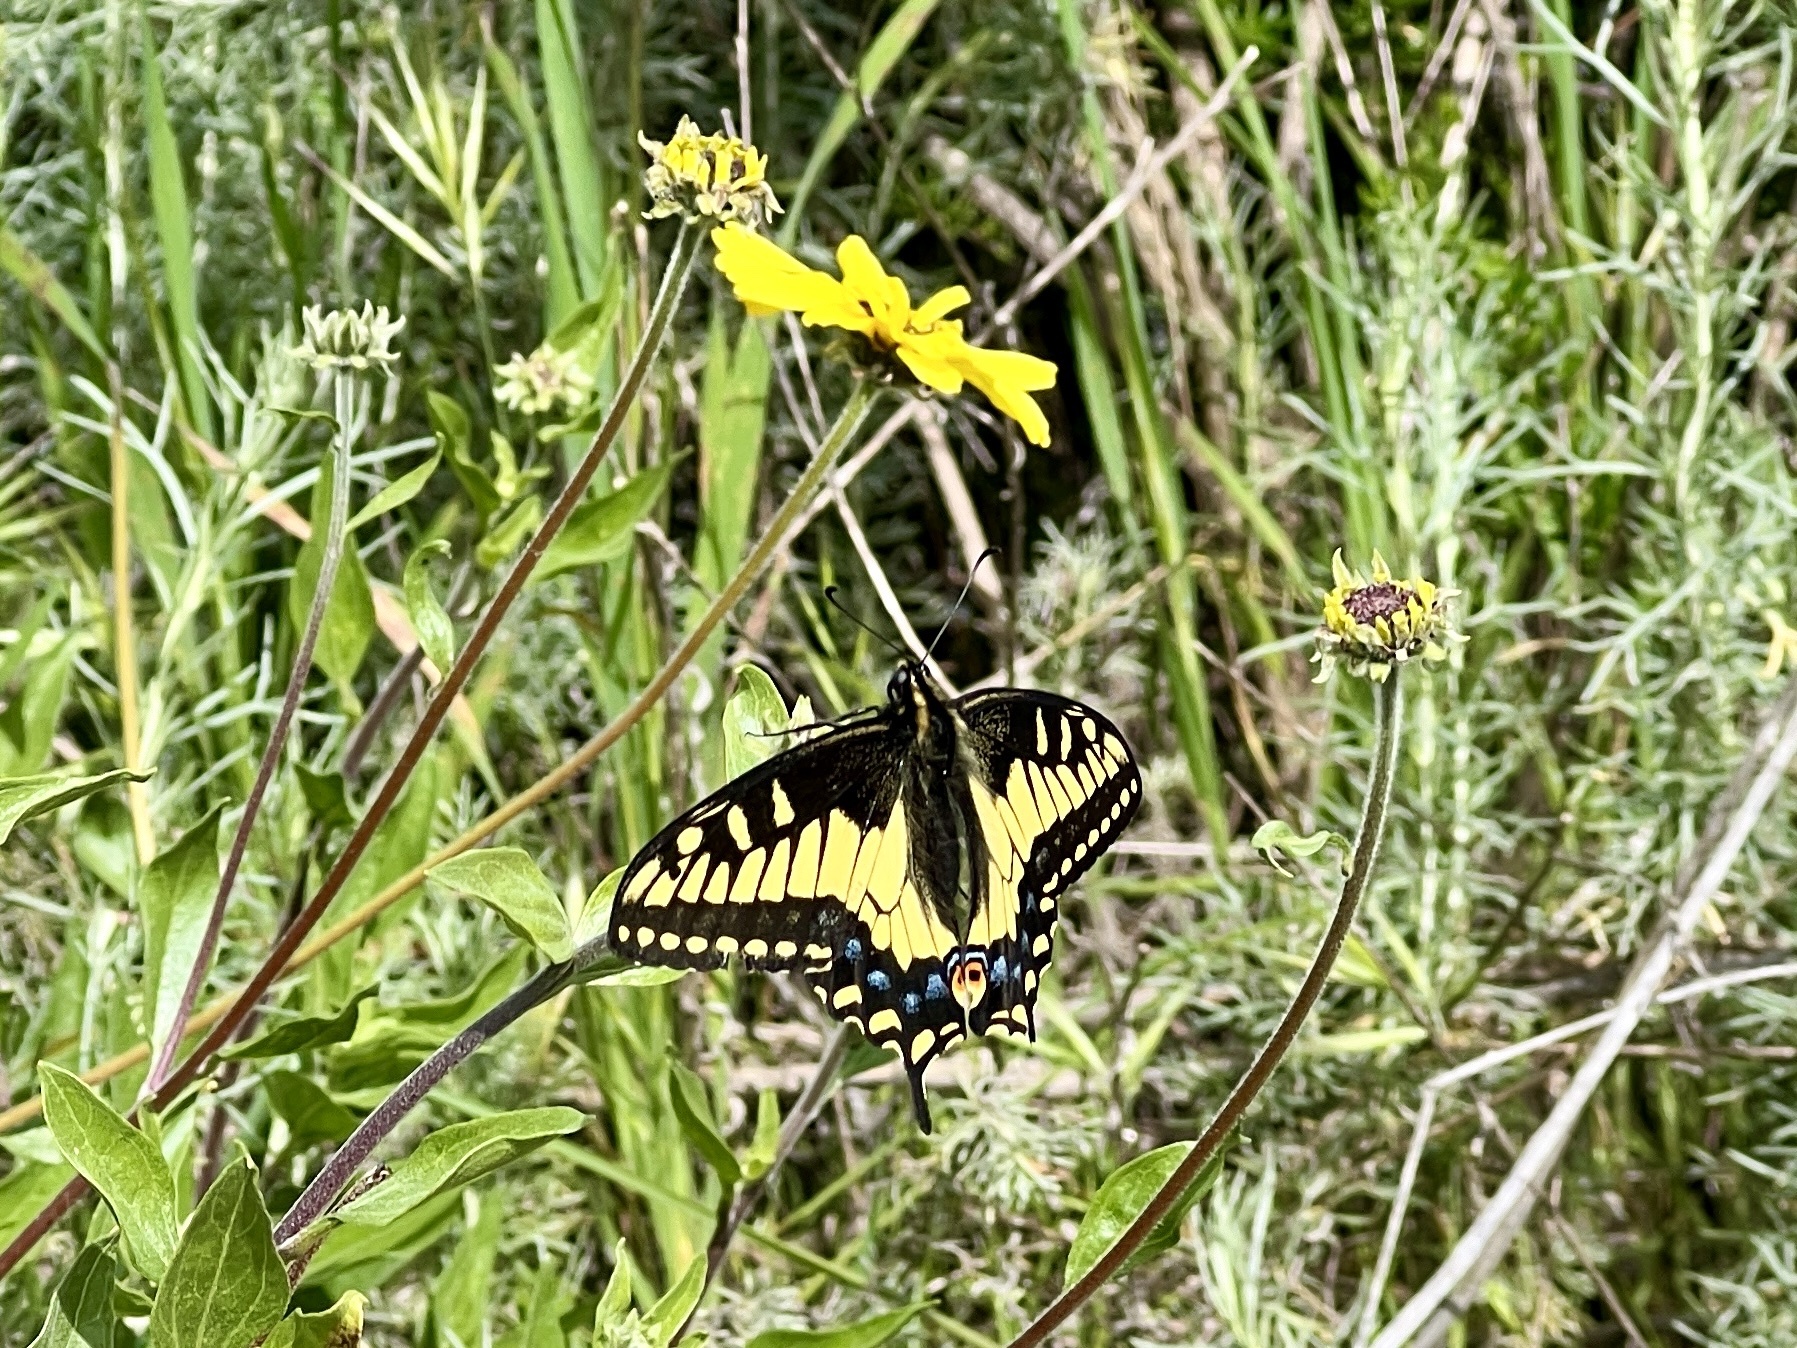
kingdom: Animalia
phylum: Arthropoda
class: Insecta
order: Lepidoptera
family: Papilionidae
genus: Papilio
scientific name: Papilio zelicaon
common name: Anise swallowtail
